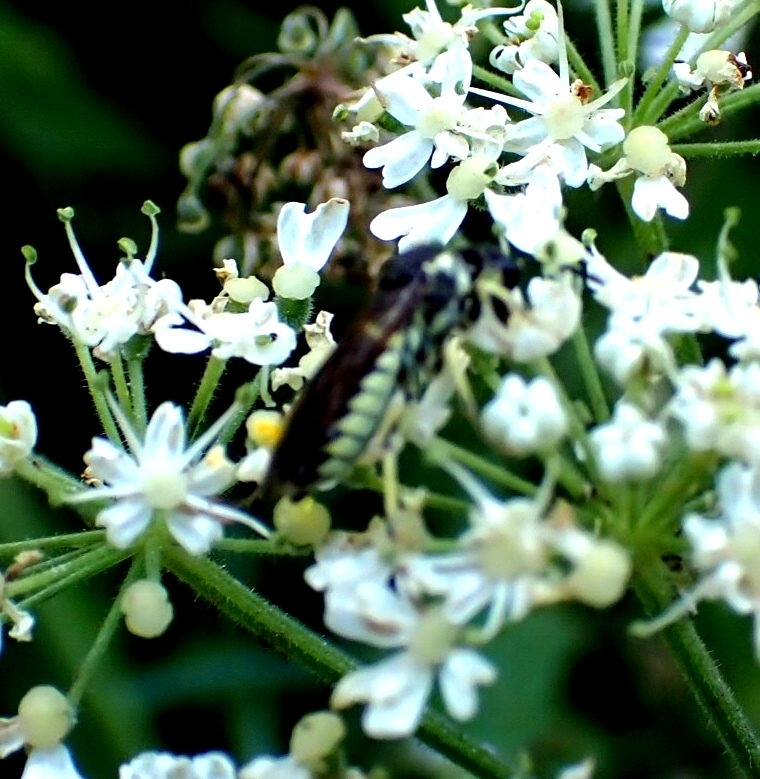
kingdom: Animalia
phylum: Arthropoda
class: Insecta
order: Hymenoptera
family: Tenthredinidae
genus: Tenthredo
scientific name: Tenthredo notha
